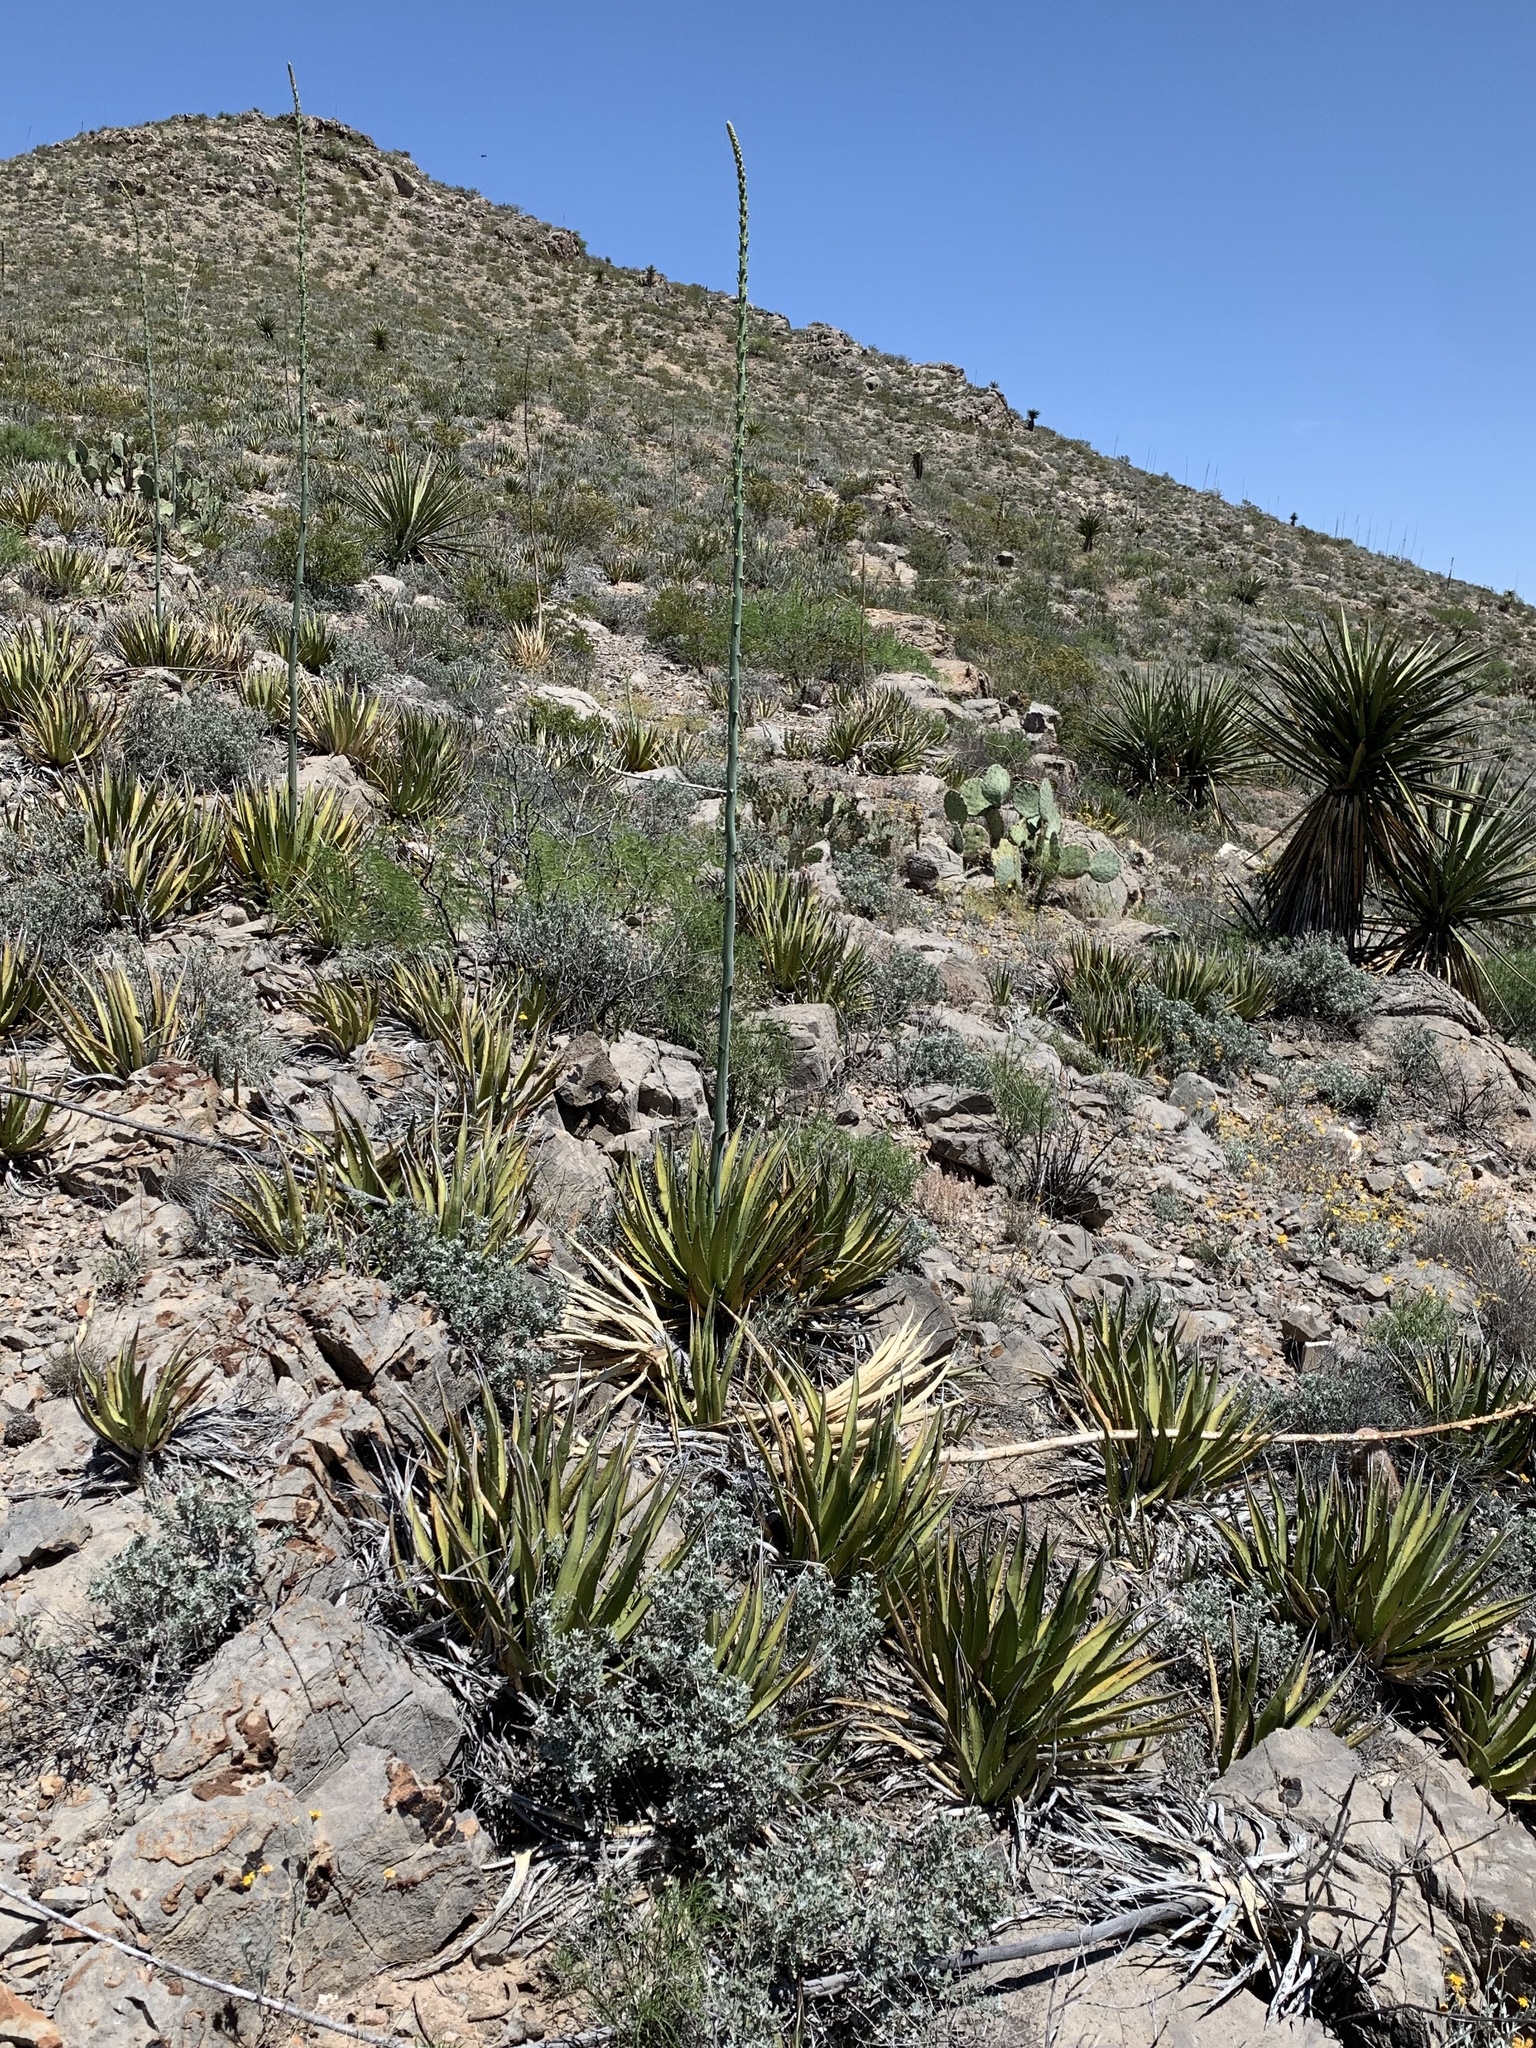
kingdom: Plantae
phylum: Tracheophyta
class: Liliopsida
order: Asparagales
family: Asparagaceae
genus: Agave
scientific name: Agave lechuguilla
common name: Lecheguilla agave
